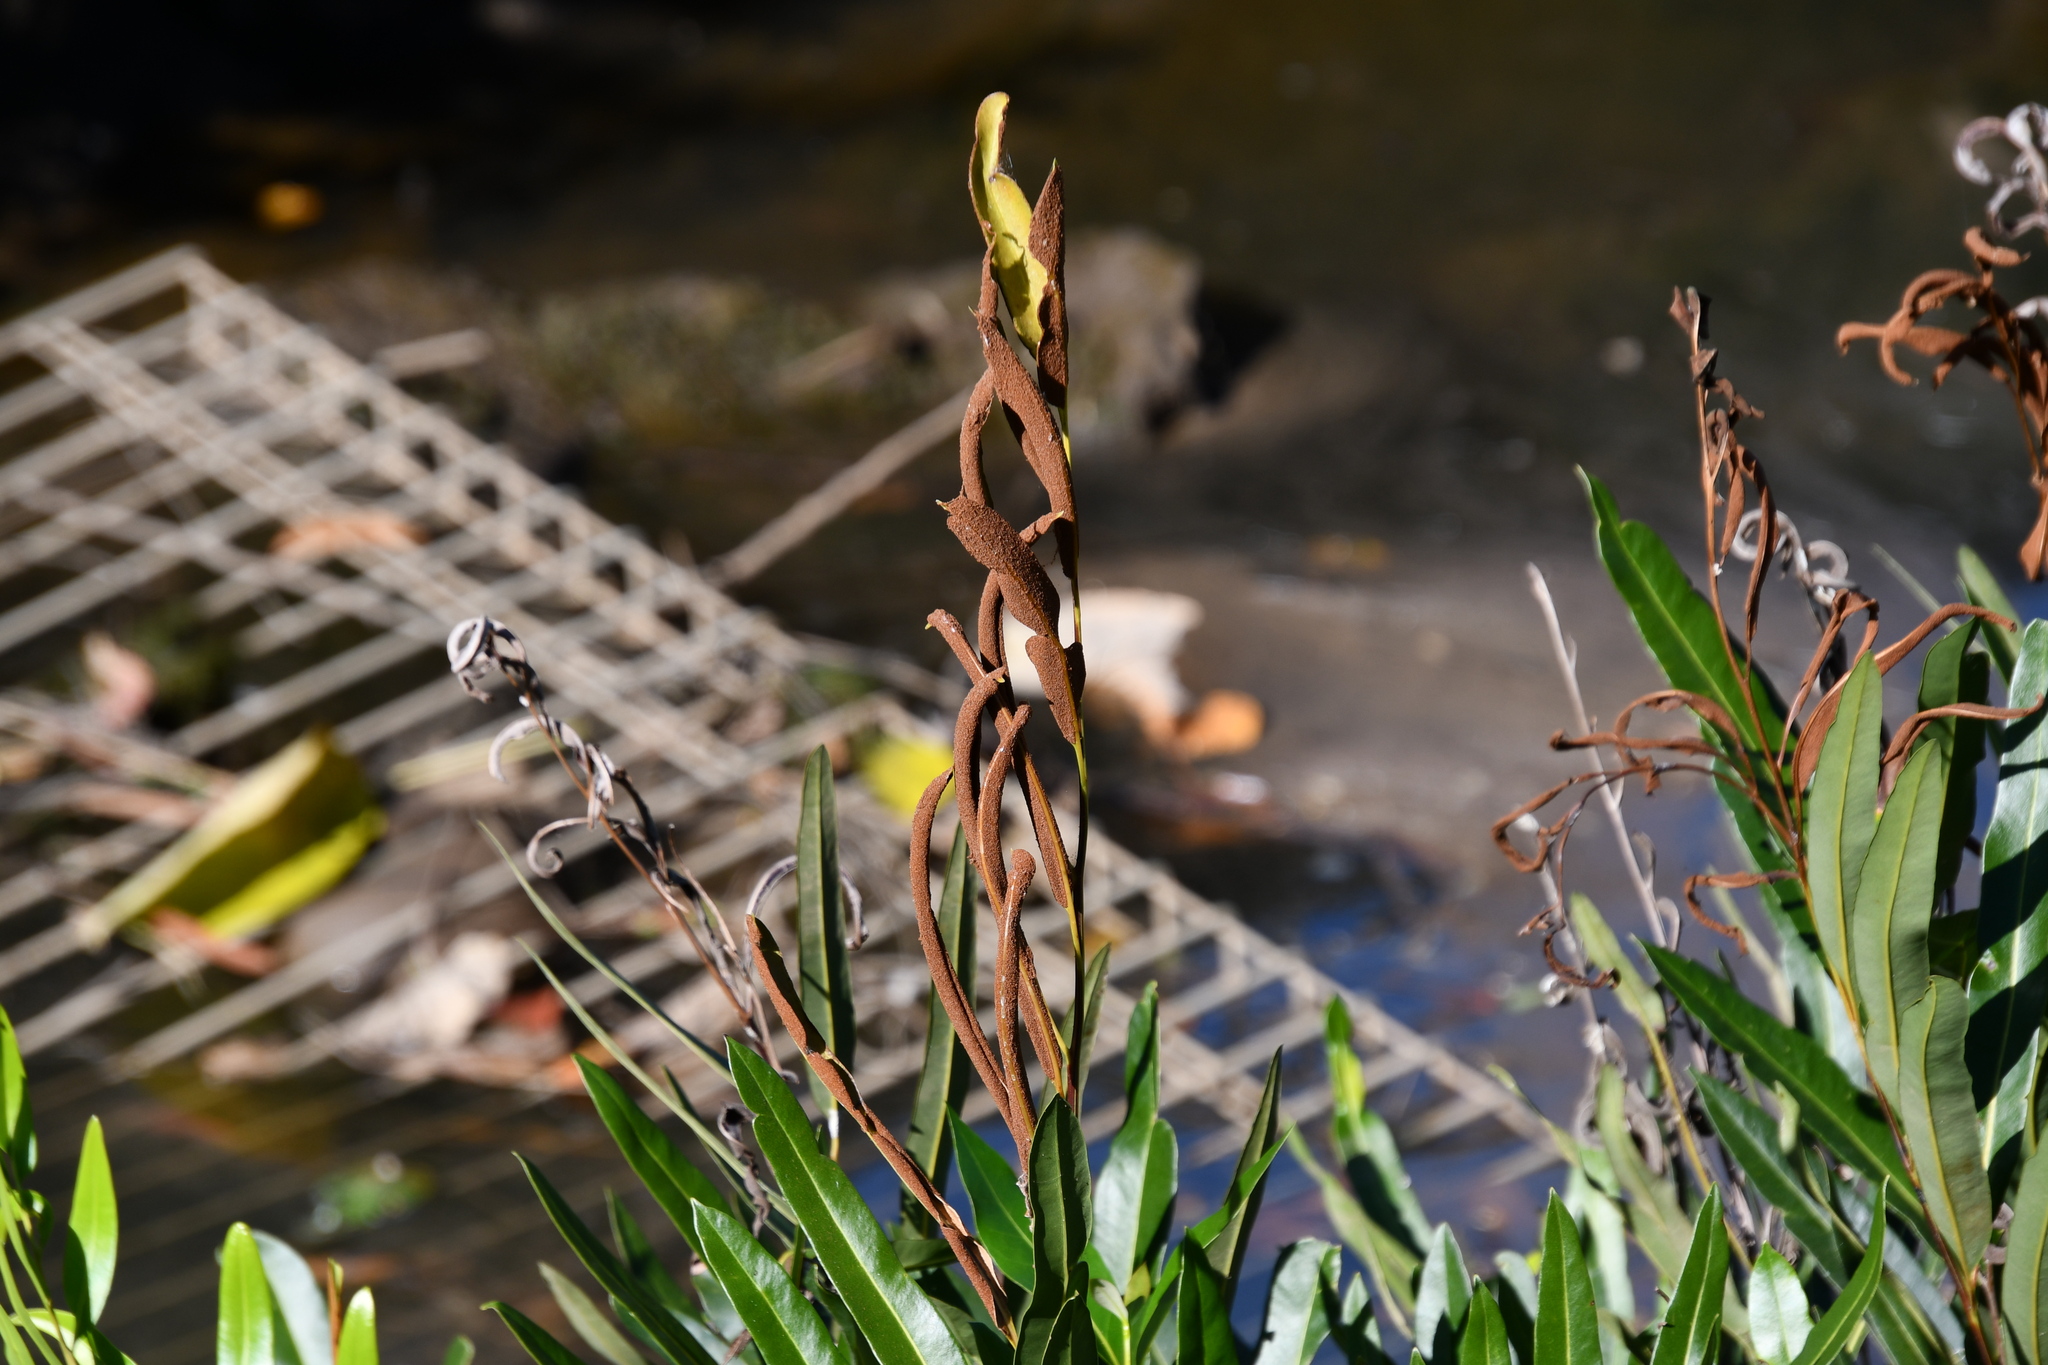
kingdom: Plantae
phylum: Tracheophyta
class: Polypodiopsida
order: Polypodiales
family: Pteridaceae
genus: Acrostichum
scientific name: Acrostichum speciosum
